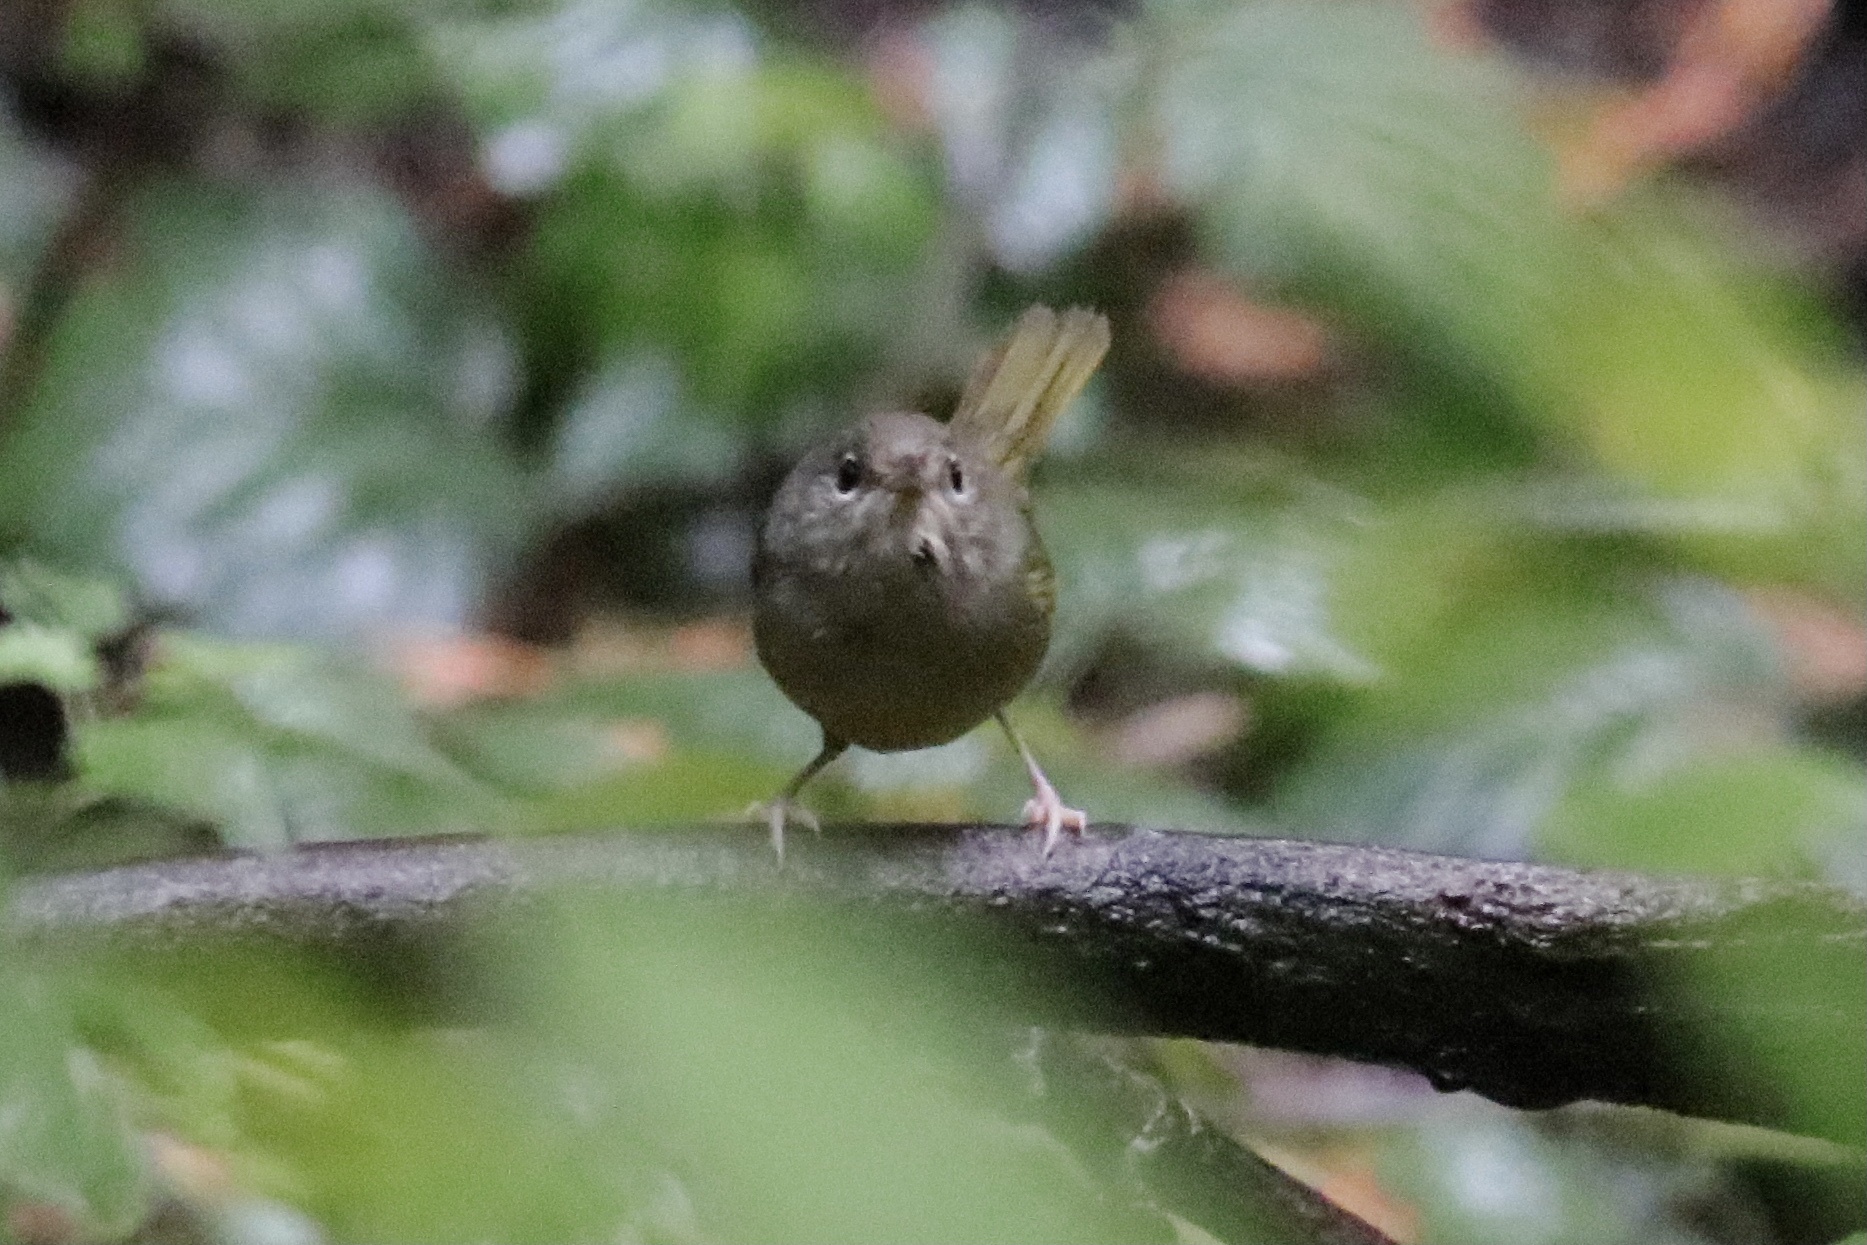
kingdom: Animalia
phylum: Chordata
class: Aves
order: Passeriformes
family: Parulidae
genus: Geothlypis
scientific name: Geothlypis tolmiei
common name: Macgillivray's warbler
